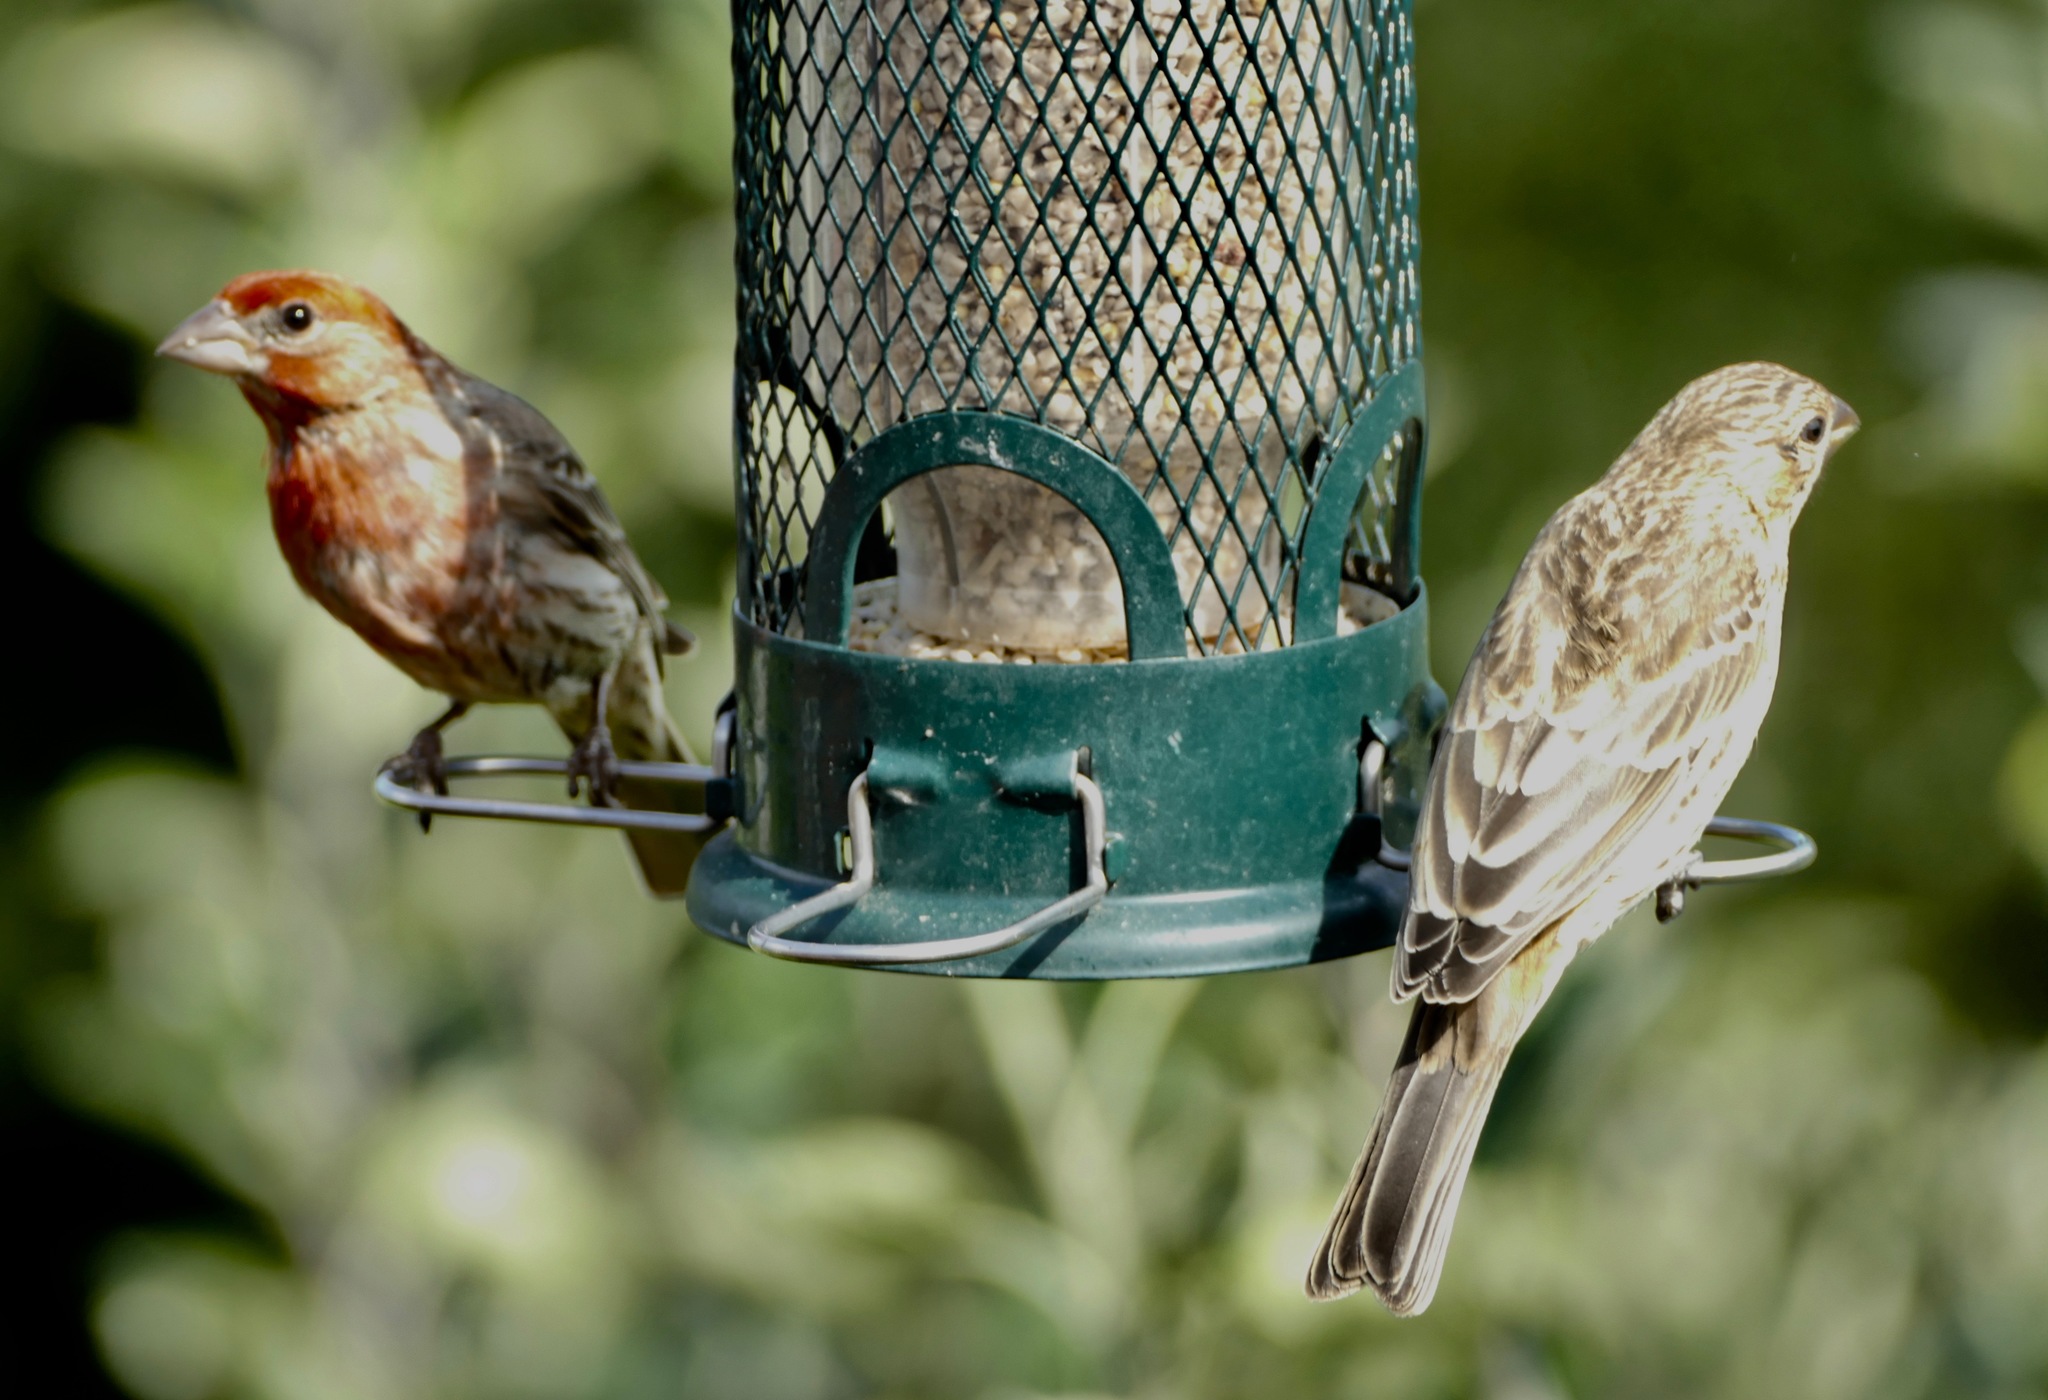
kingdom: Animalia
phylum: Chordata
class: Aves
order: Passeriformes
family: Fringillidae
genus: Haemorhous
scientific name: Haemorhous mexicanus
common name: House finch
